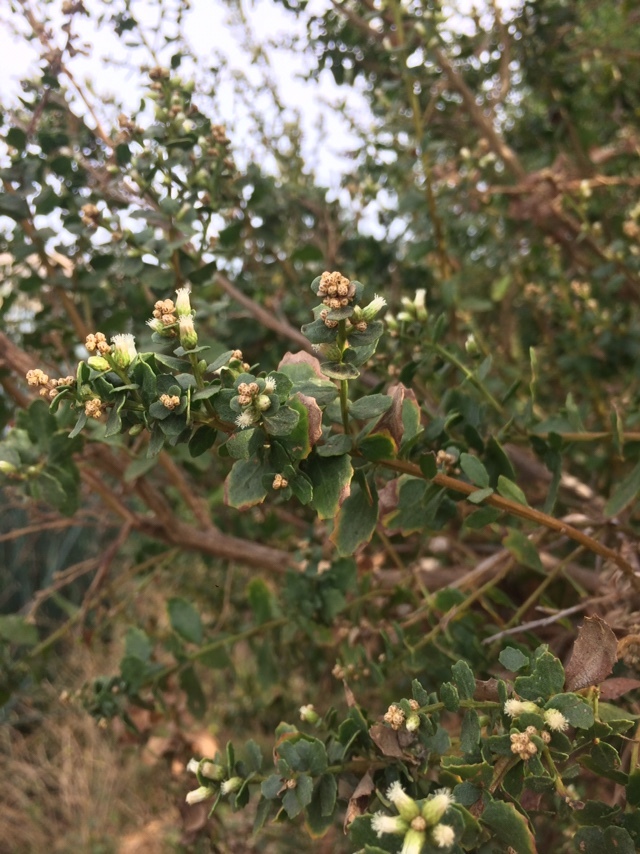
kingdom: Plantae
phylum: Tracheophyta
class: Magnoliopsida
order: Asterales
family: Asteraceae
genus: Baccharis
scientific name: Baccharis pilularis
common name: Coyotebrush
